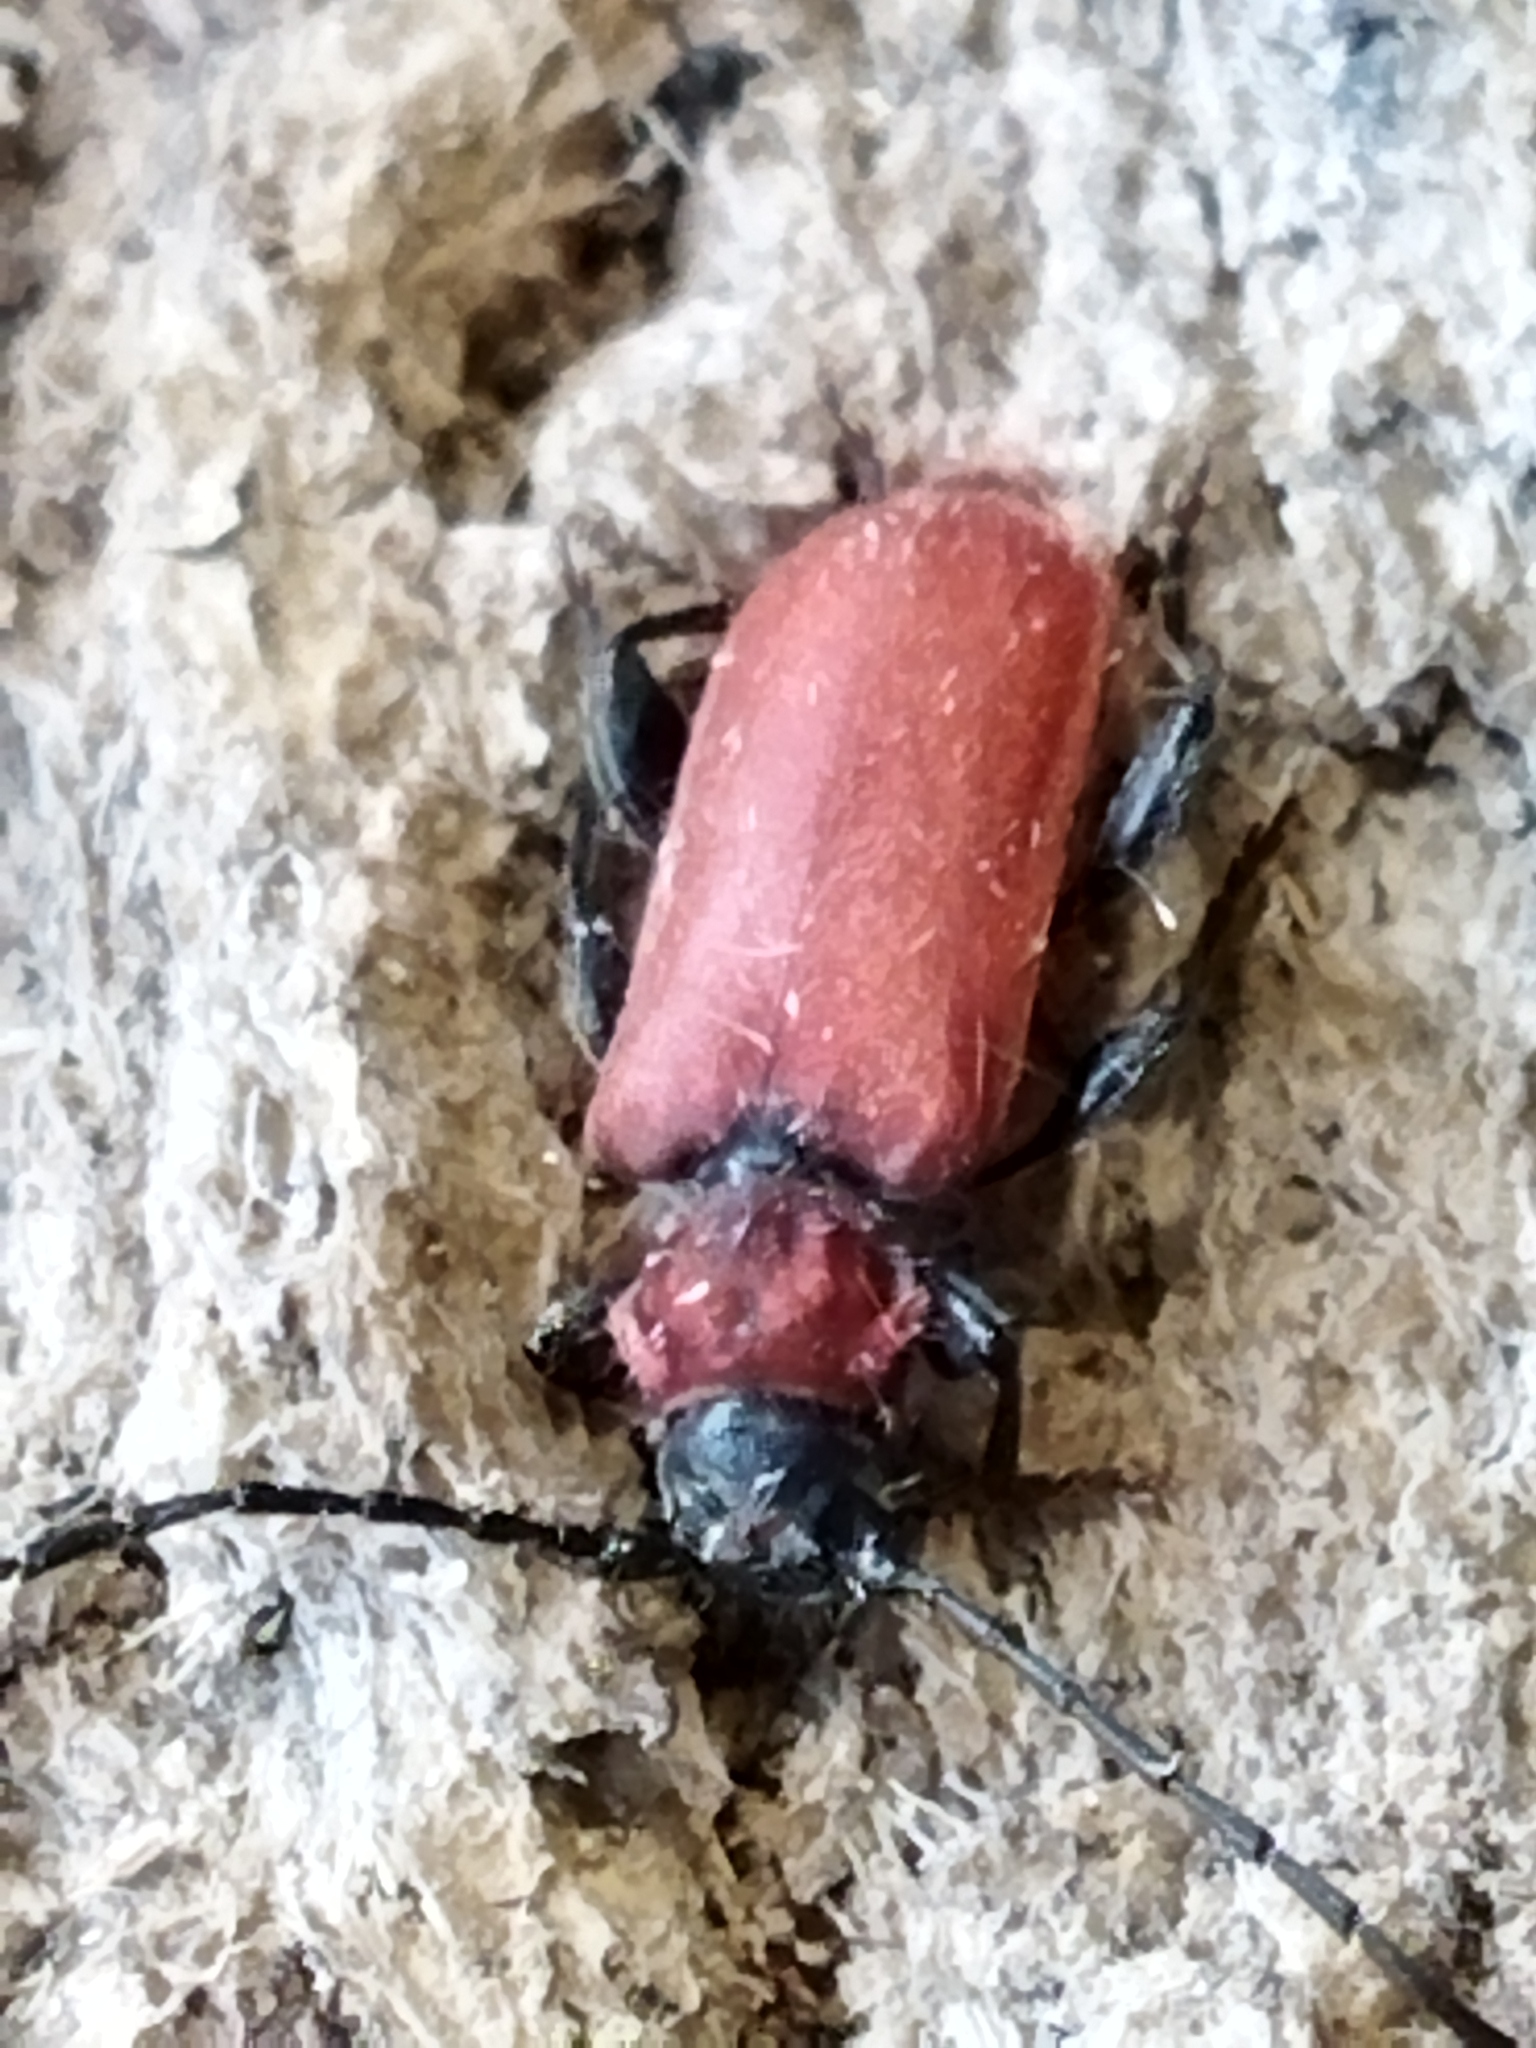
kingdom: Animalia
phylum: Arthropoda
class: Insecta
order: Coleoptera
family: Cerambycidae
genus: Pyrrhidium
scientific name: Pyrrhidium sanguineum
